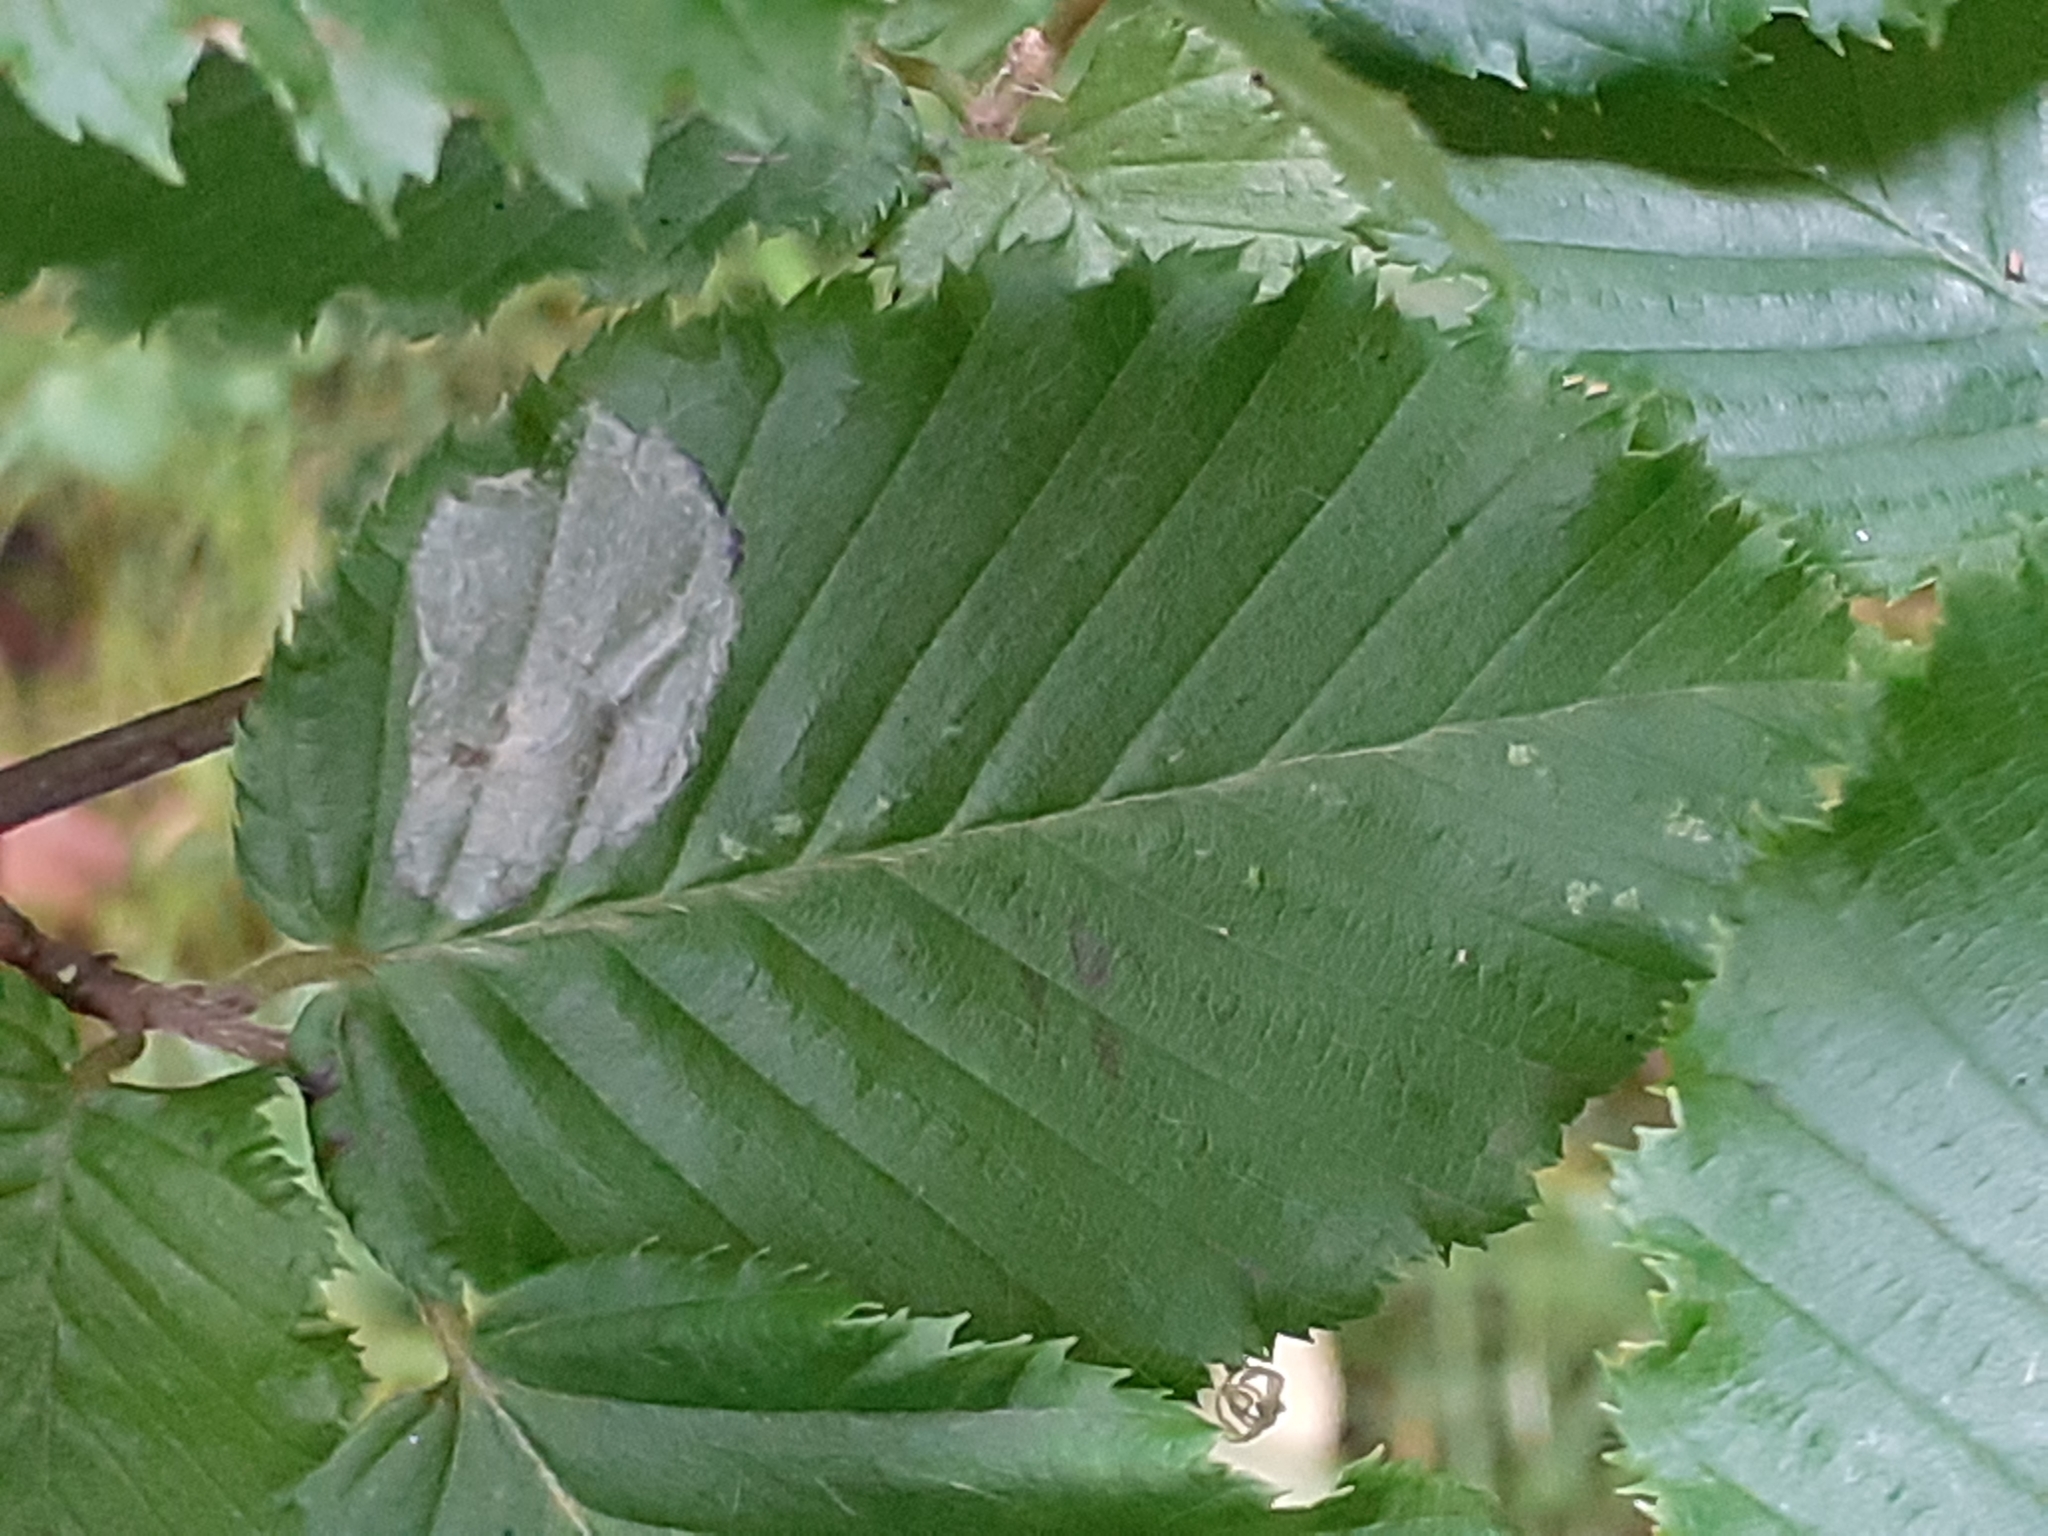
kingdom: Animalia
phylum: Arthropoda
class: Insecta
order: Lepidoptera
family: Gracillariidae
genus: Phyllonorycter
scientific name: Phyllonorycter esperella
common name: Dark hornbeam midget
